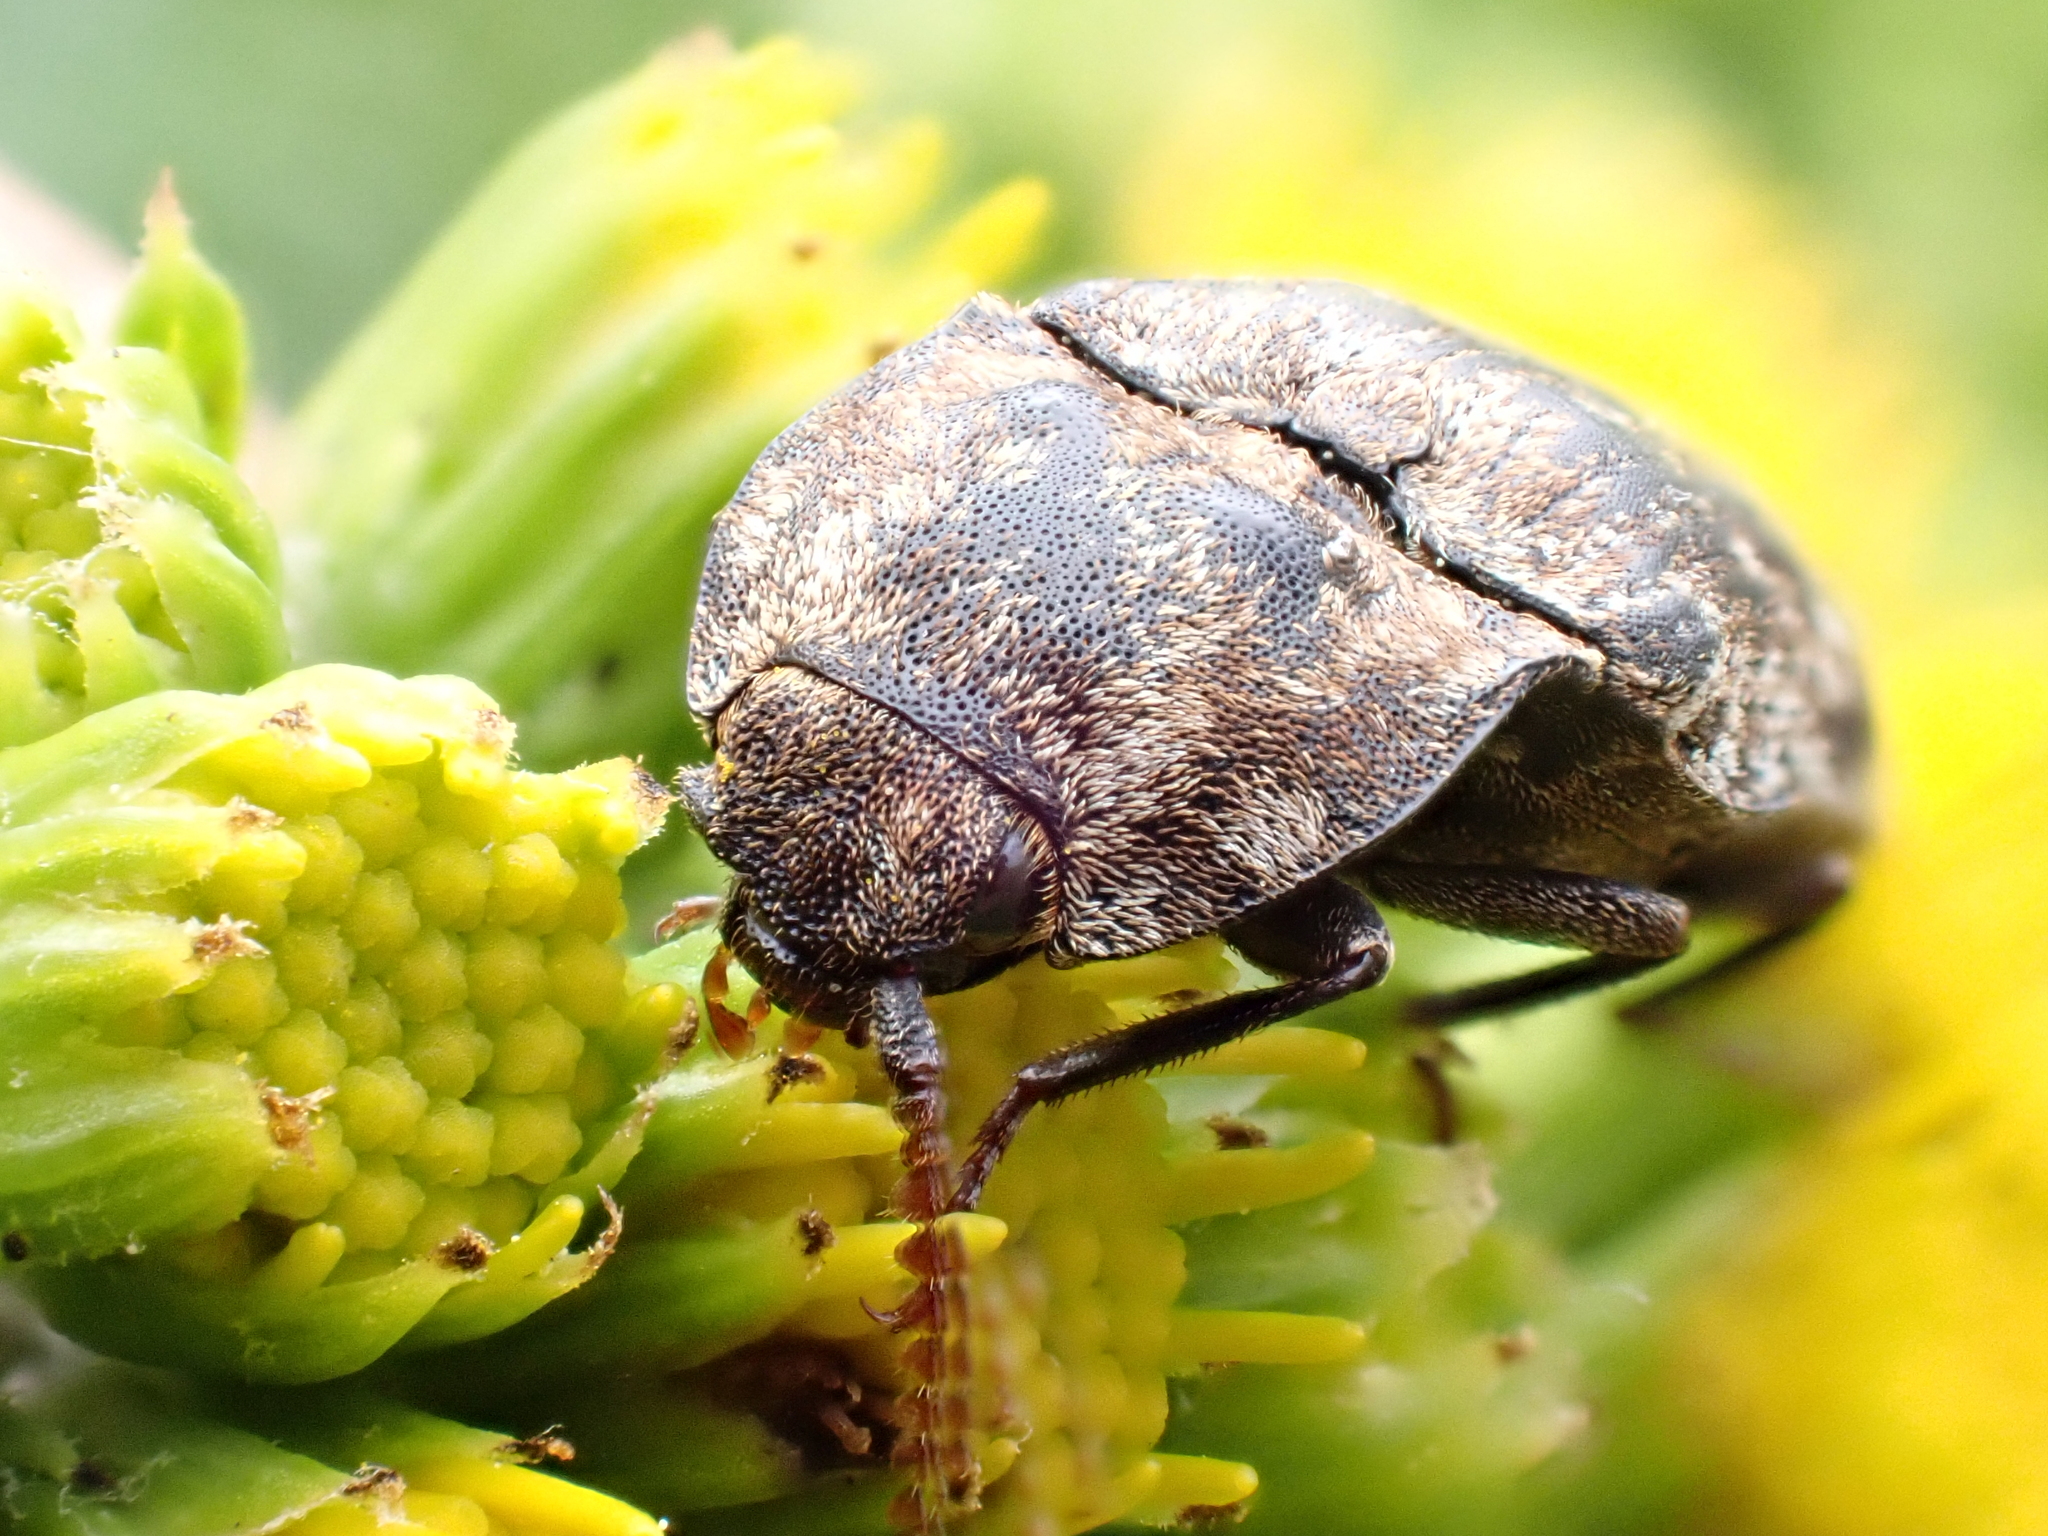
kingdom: Animalia
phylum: Arthropoda
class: Insecta
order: Coleoptera
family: Elateridae
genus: Agrypnus
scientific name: Agrypnus murinus
